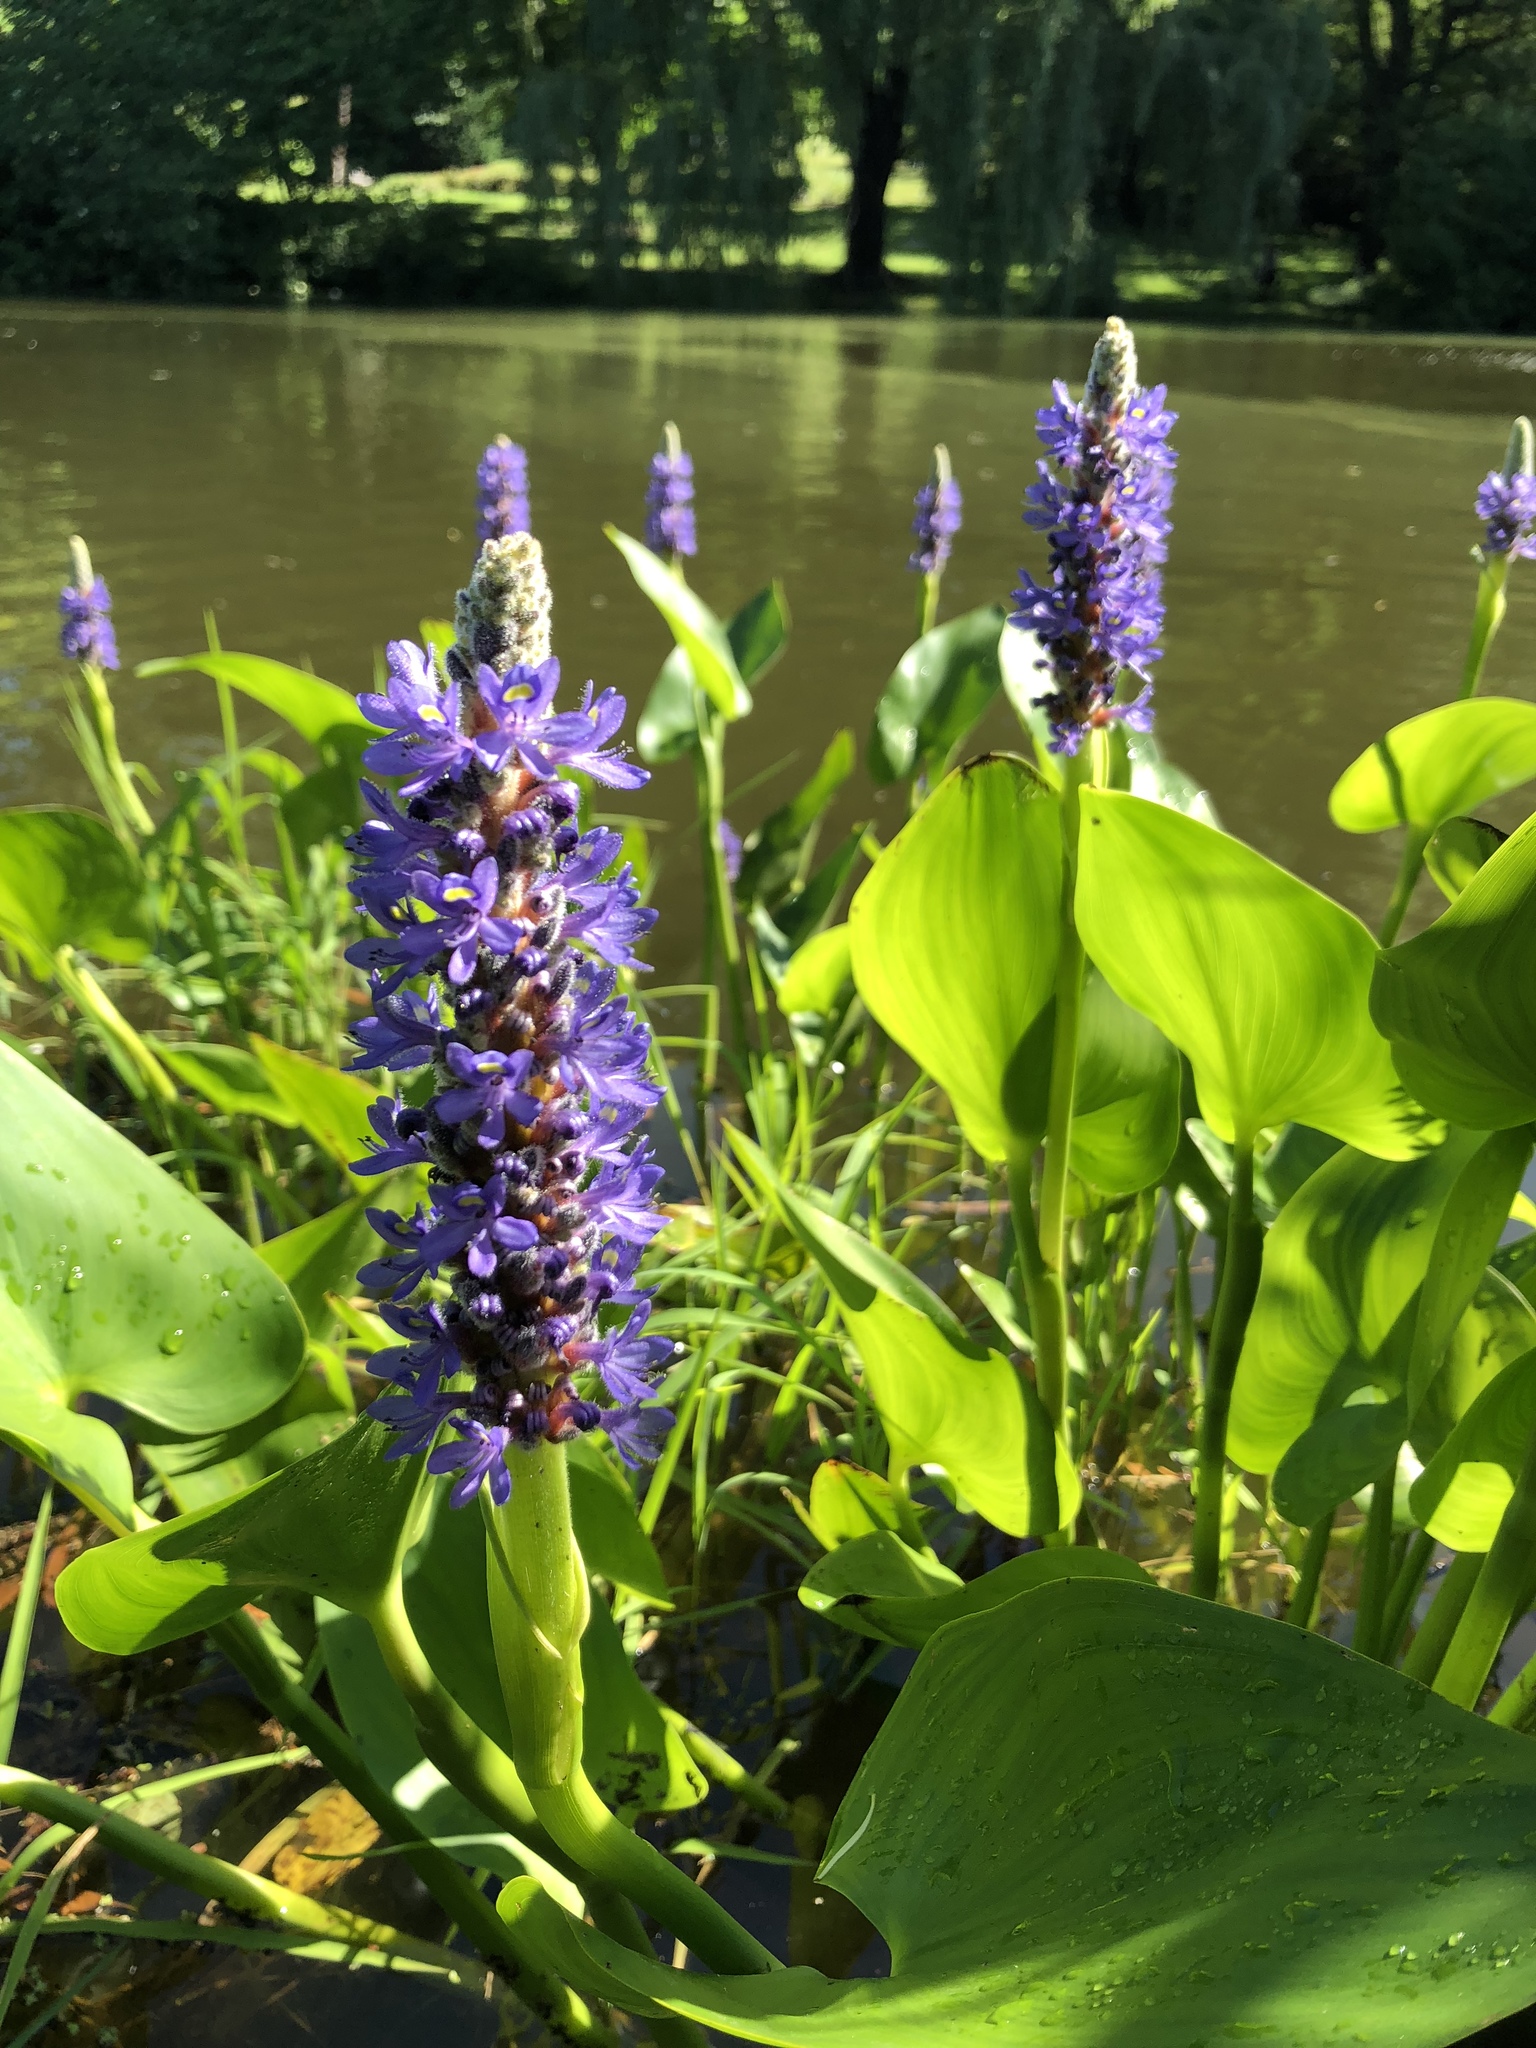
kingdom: Plantae
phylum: Tracheophyta
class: Liliopsida
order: Commelinales
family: Pontederiaceae
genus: Pontederia
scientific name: Pontederia cordata
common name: Pickerelweed
